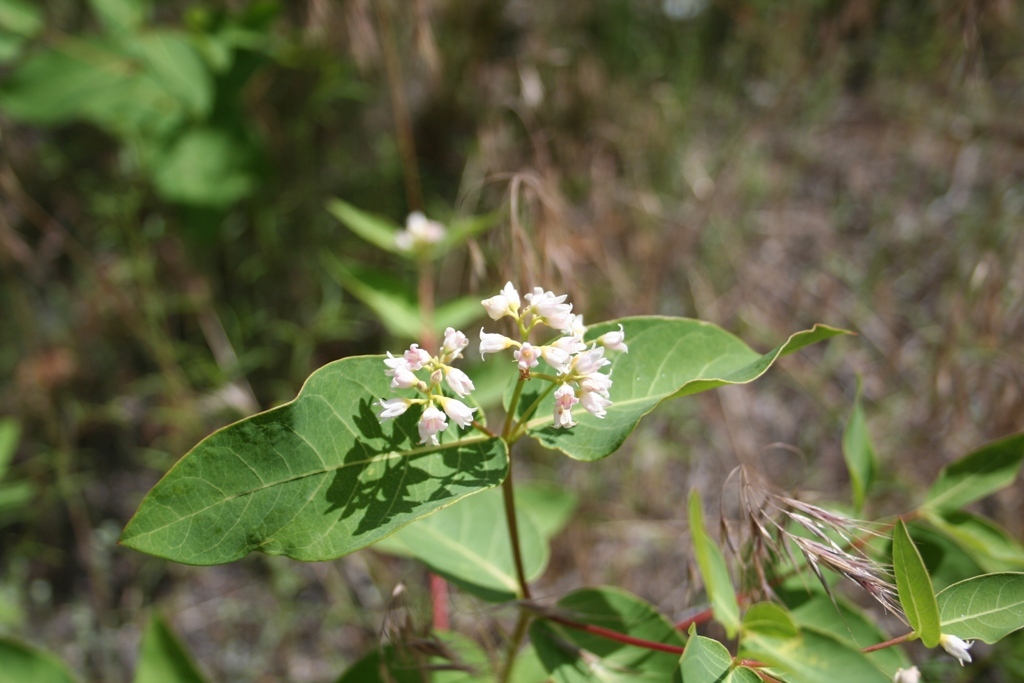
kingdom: Plantae
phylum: Tracheophyta
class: Magnoliopsida
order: Gentianales
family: Apocynaceae
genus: Apocynum
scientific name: Apocynum androsaemifolium
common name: Spreading dogbane
